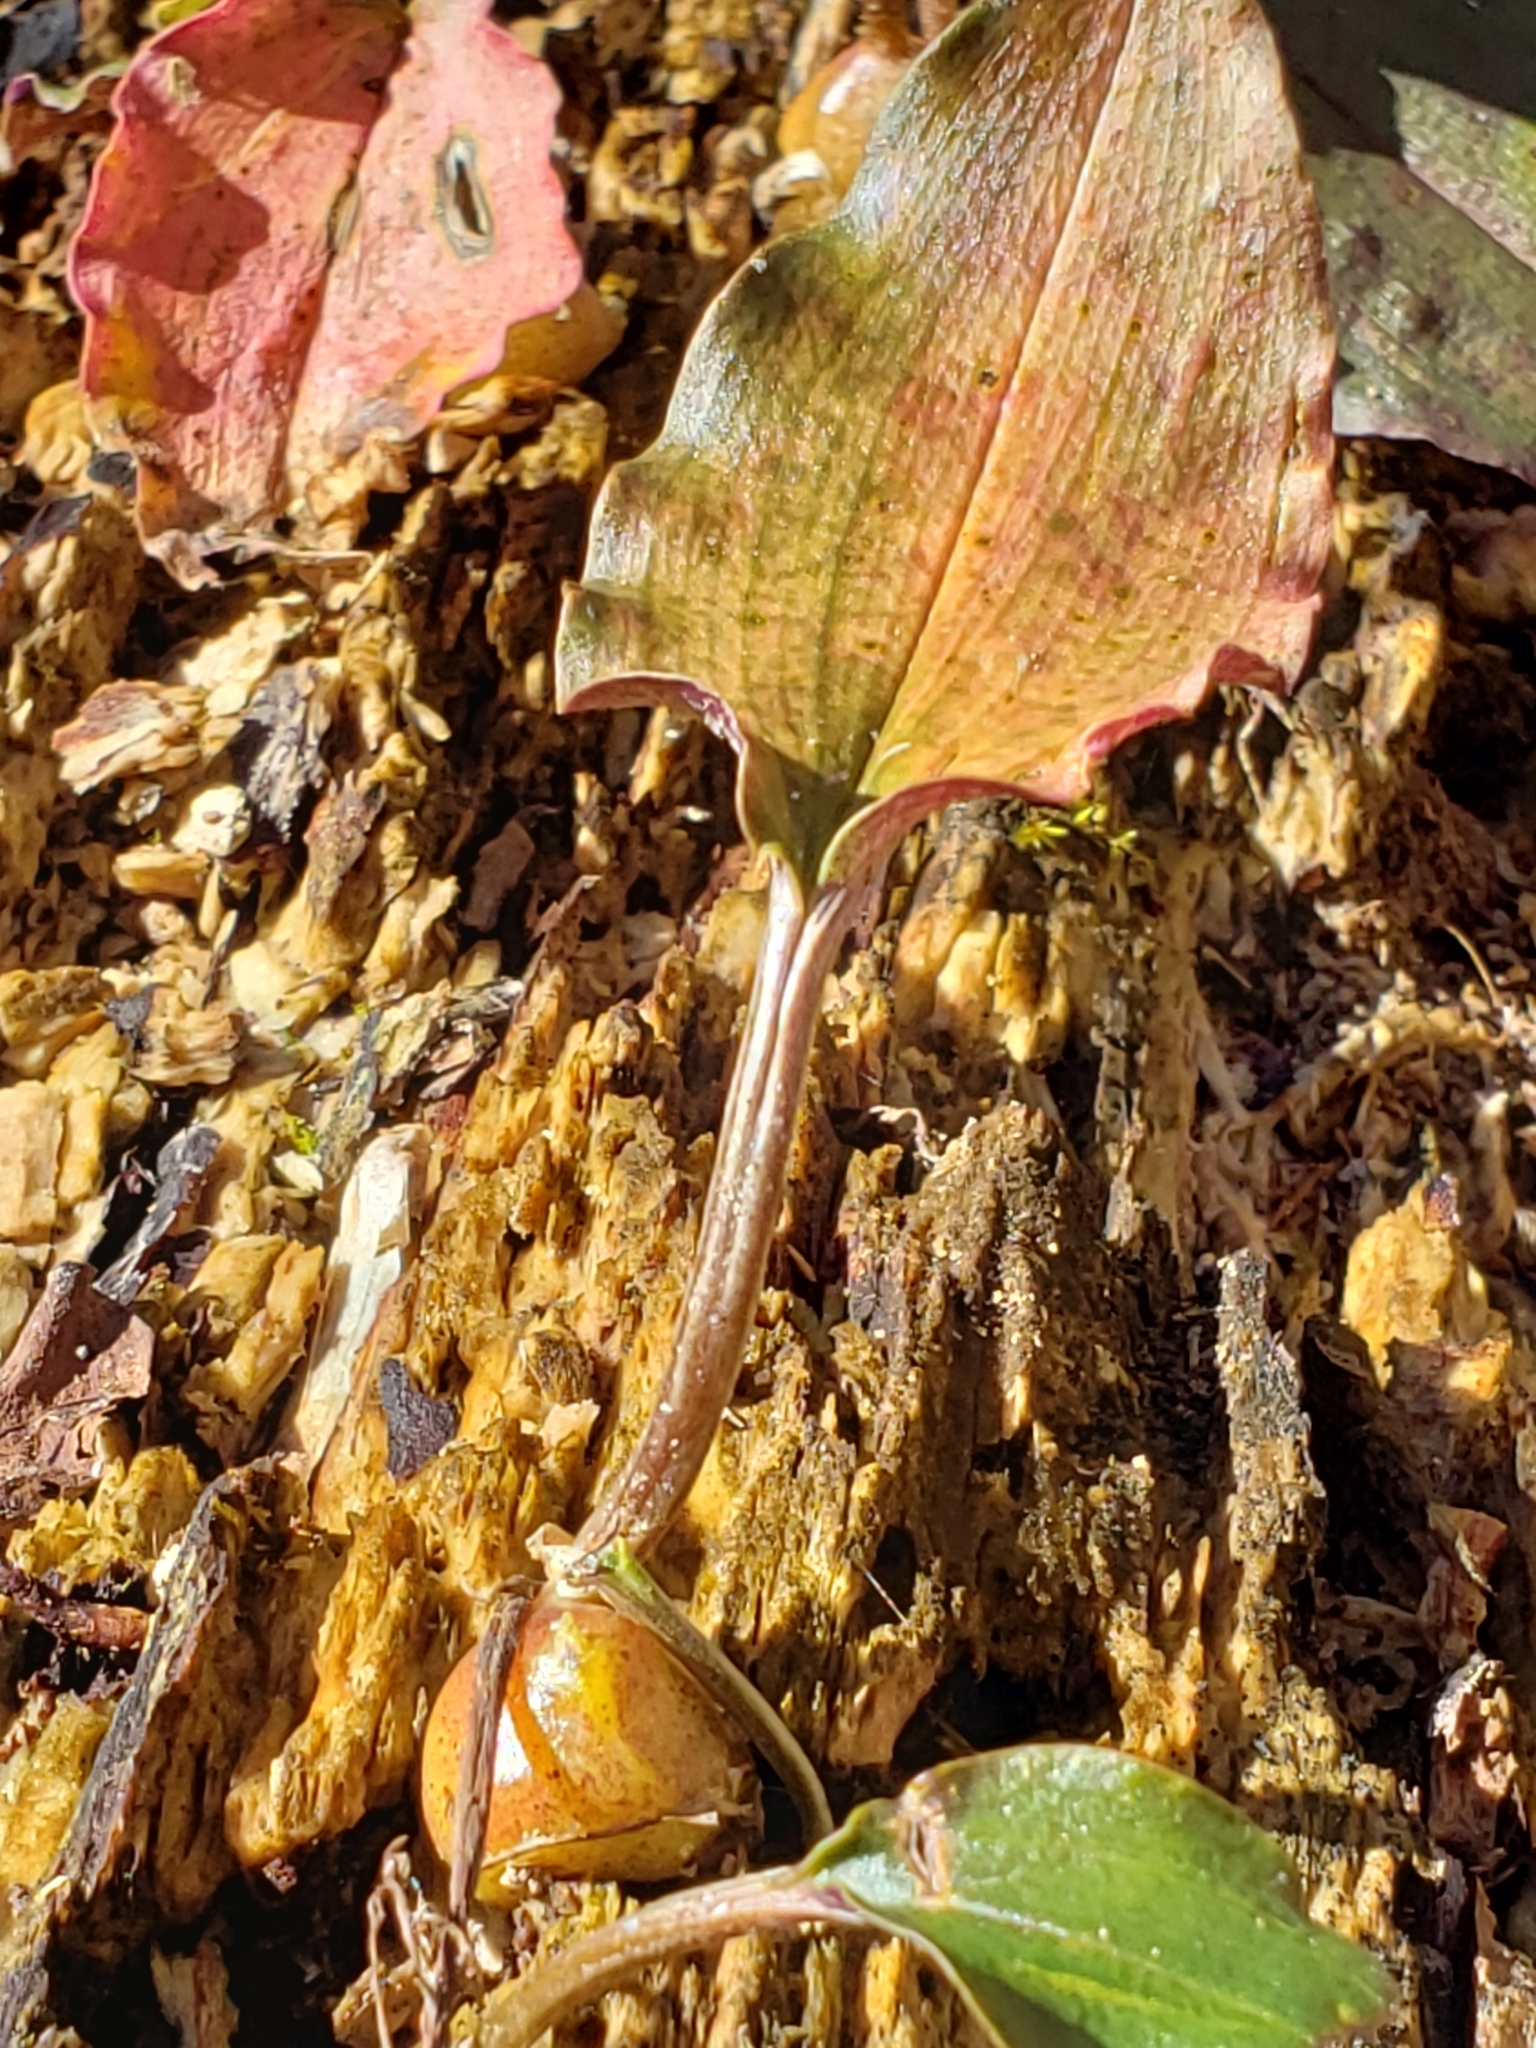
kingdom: Plantae
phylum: Tracheophyta
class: Liliopsida
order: Asparagales
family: Orchidaceae
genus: Tipularia
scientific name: Tipularia discolor
